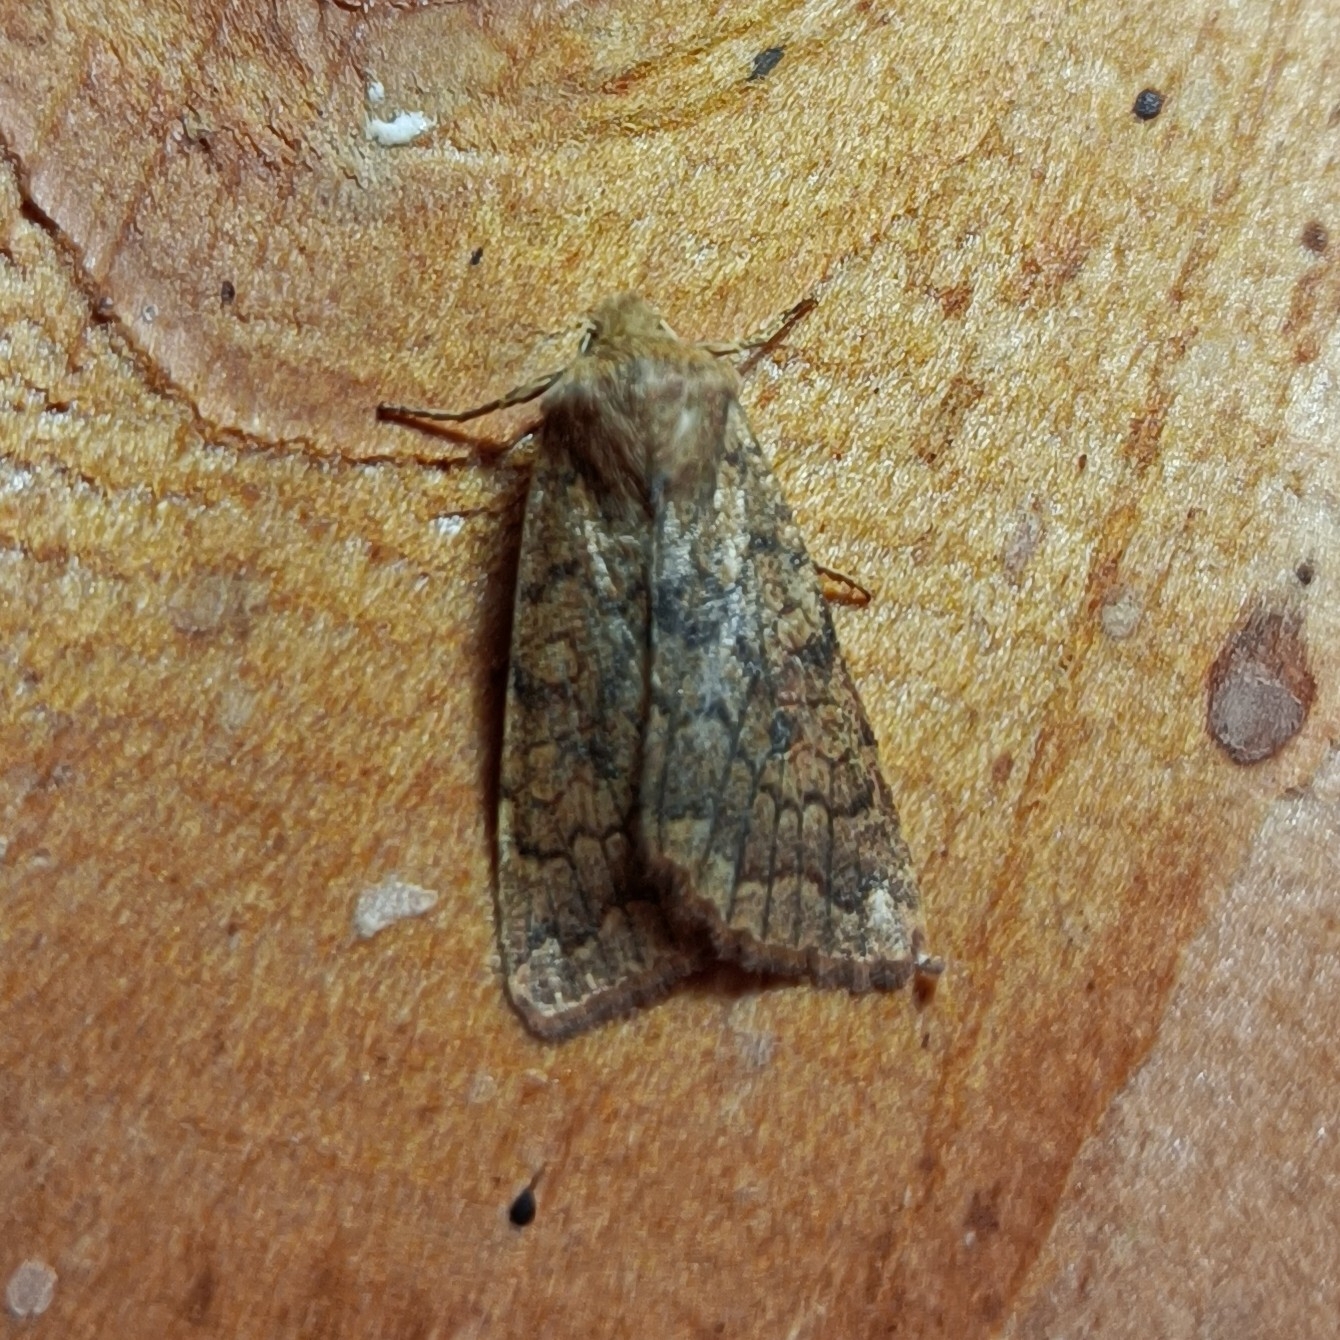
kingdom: Animalia
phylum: Arthropoda
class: Insecta
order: Lepidoptera
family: Noctuidae
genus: Sunira
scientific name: Sunira circellaris
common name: Brick
